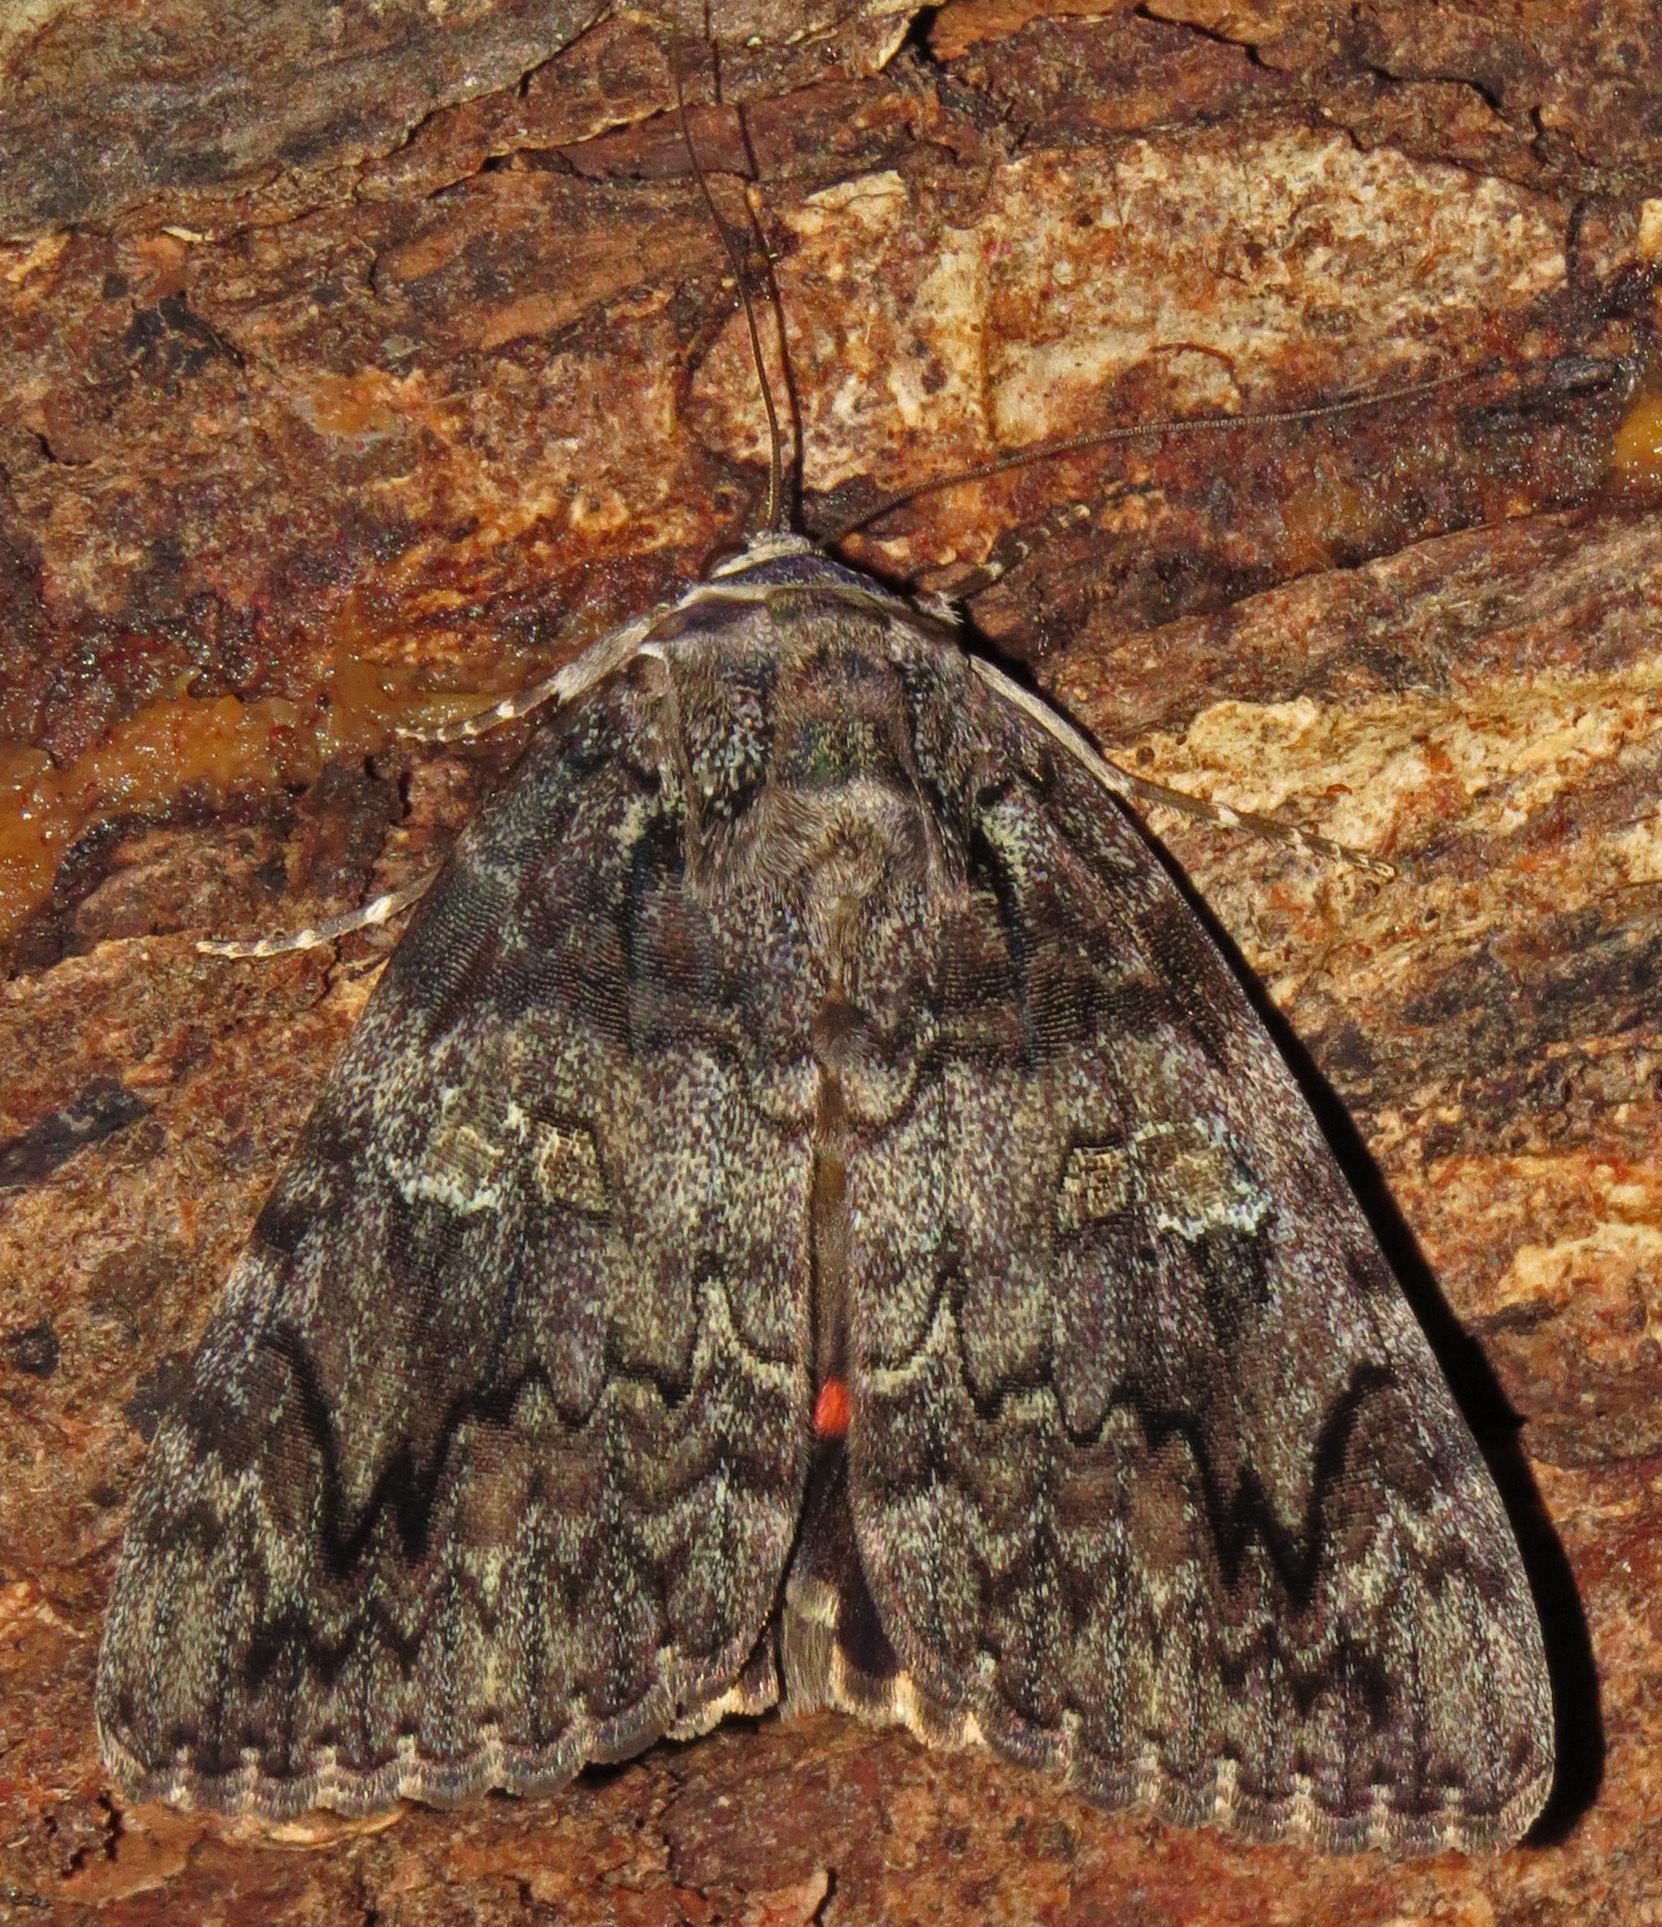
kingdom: Animalia
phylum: Arthropoda
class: Insecta
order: Lepidoptera
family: Erebidae
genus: Catocala
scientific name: Catocala ilia
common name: Ilia underwing
